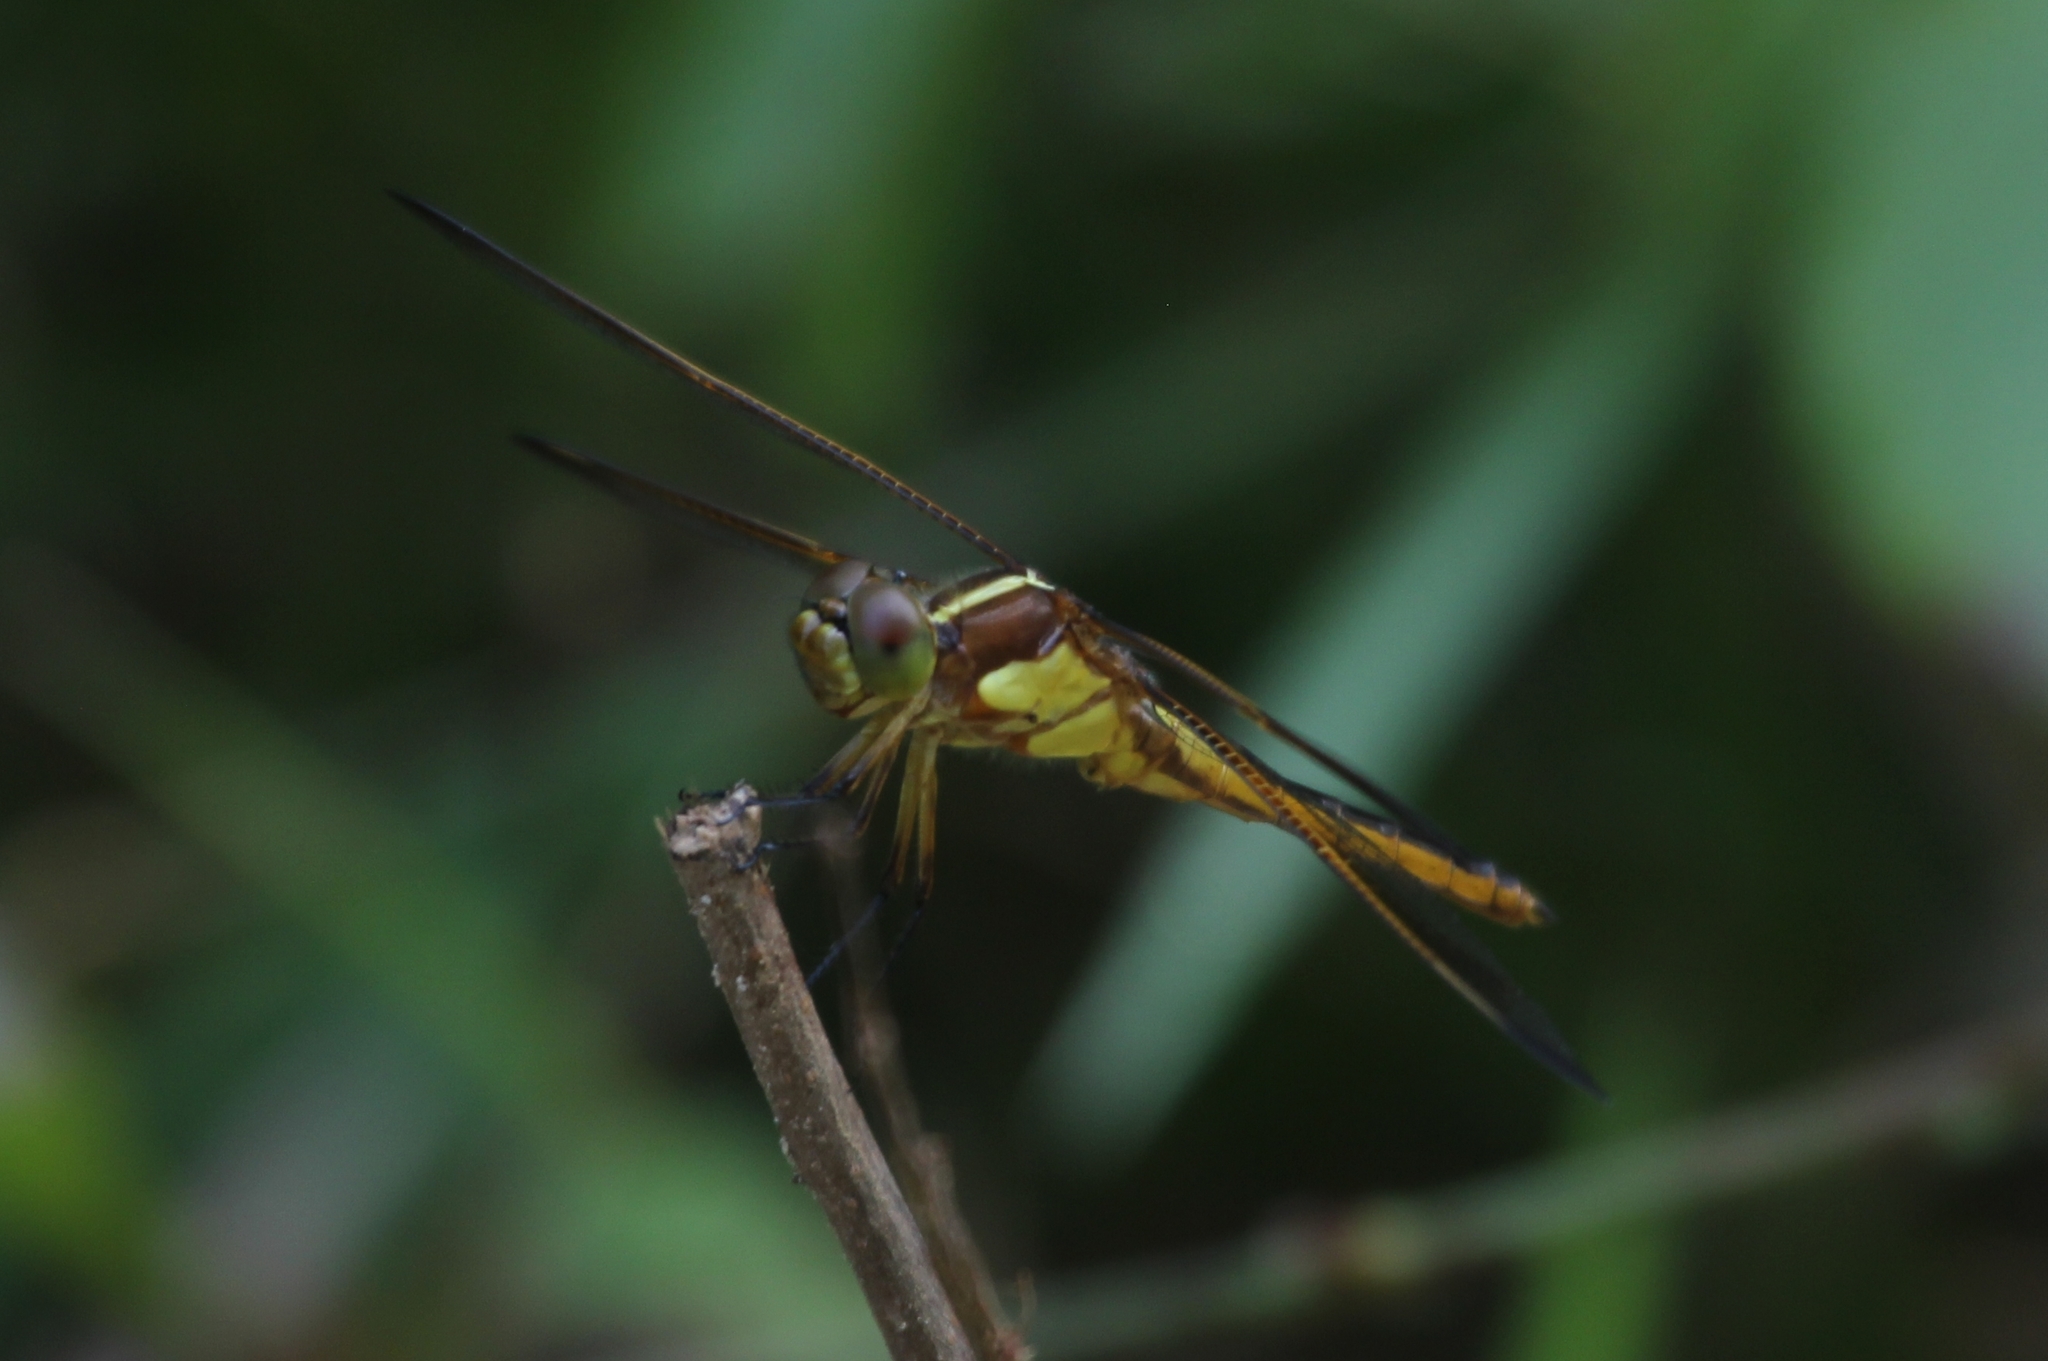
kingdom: Animalia
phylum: Arthropoda
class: Insecta
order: Odonata
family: Libellulidae
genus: Libellula
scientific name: Libellula flavida
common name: Yellow-sided skimmer
